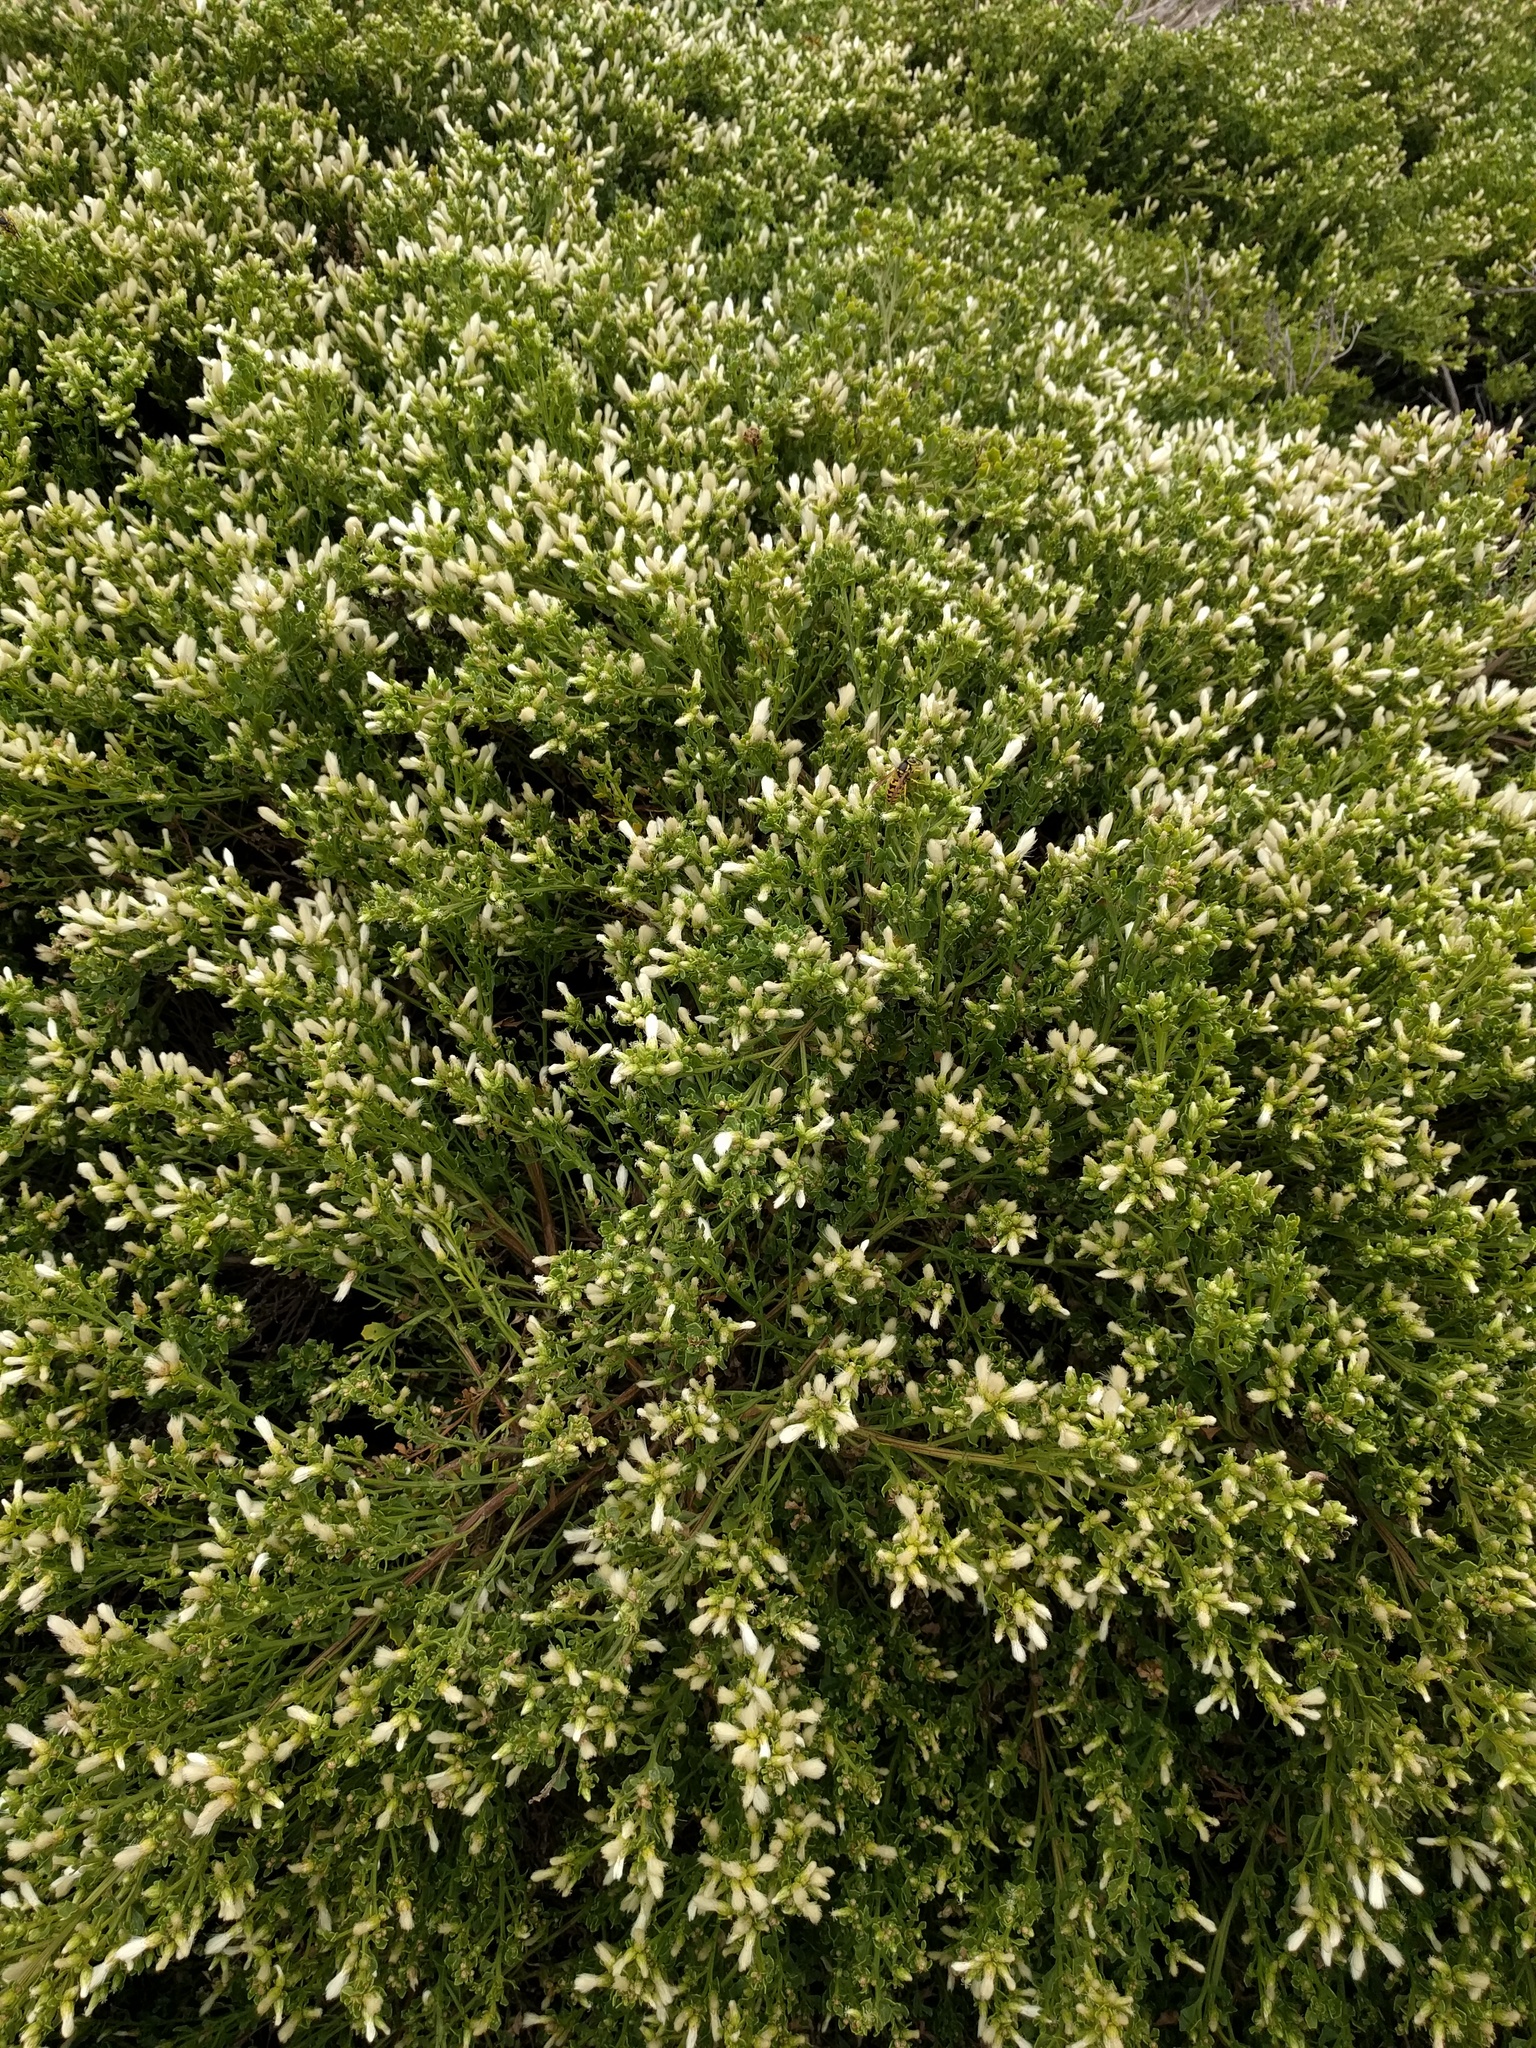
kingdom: Plantae
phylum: Tracheophyta
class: Magnoliopsida
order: Asterales
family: Asteraceae
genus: Baccharis
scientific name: Baccharis pilularis
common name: Coyotebrush
